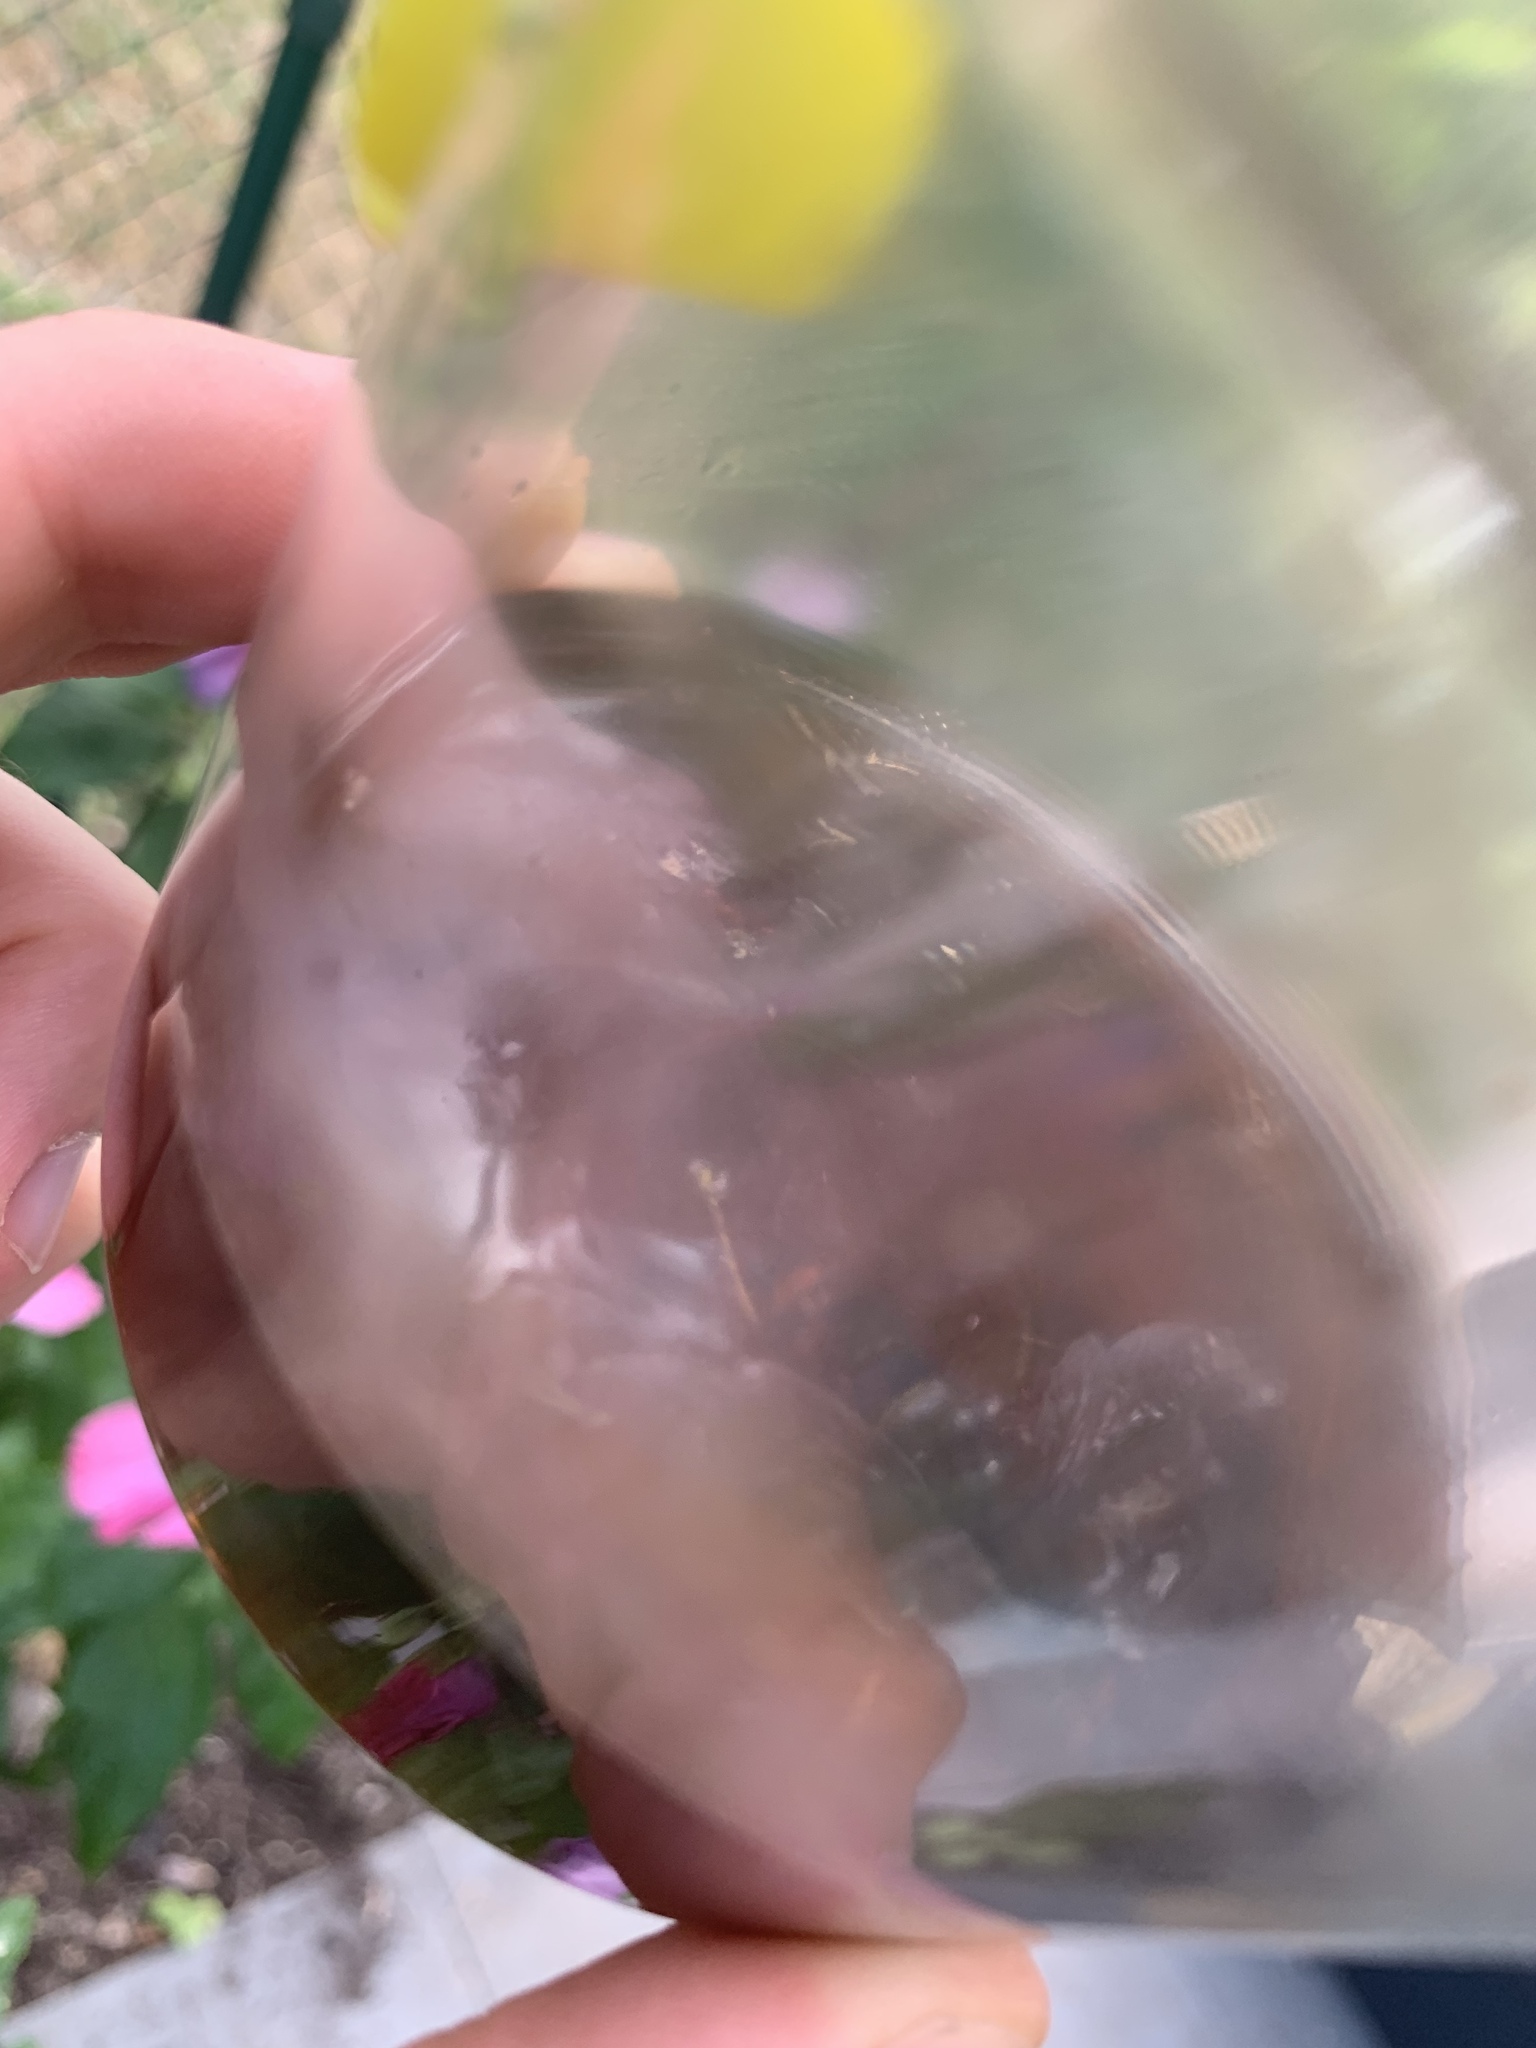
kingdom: Animalia
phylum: Arthropoda
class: Insecta
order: Hymenoptera
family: Vespidae
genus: Vespa
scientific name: Vespa velutina
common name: Asian hornet
